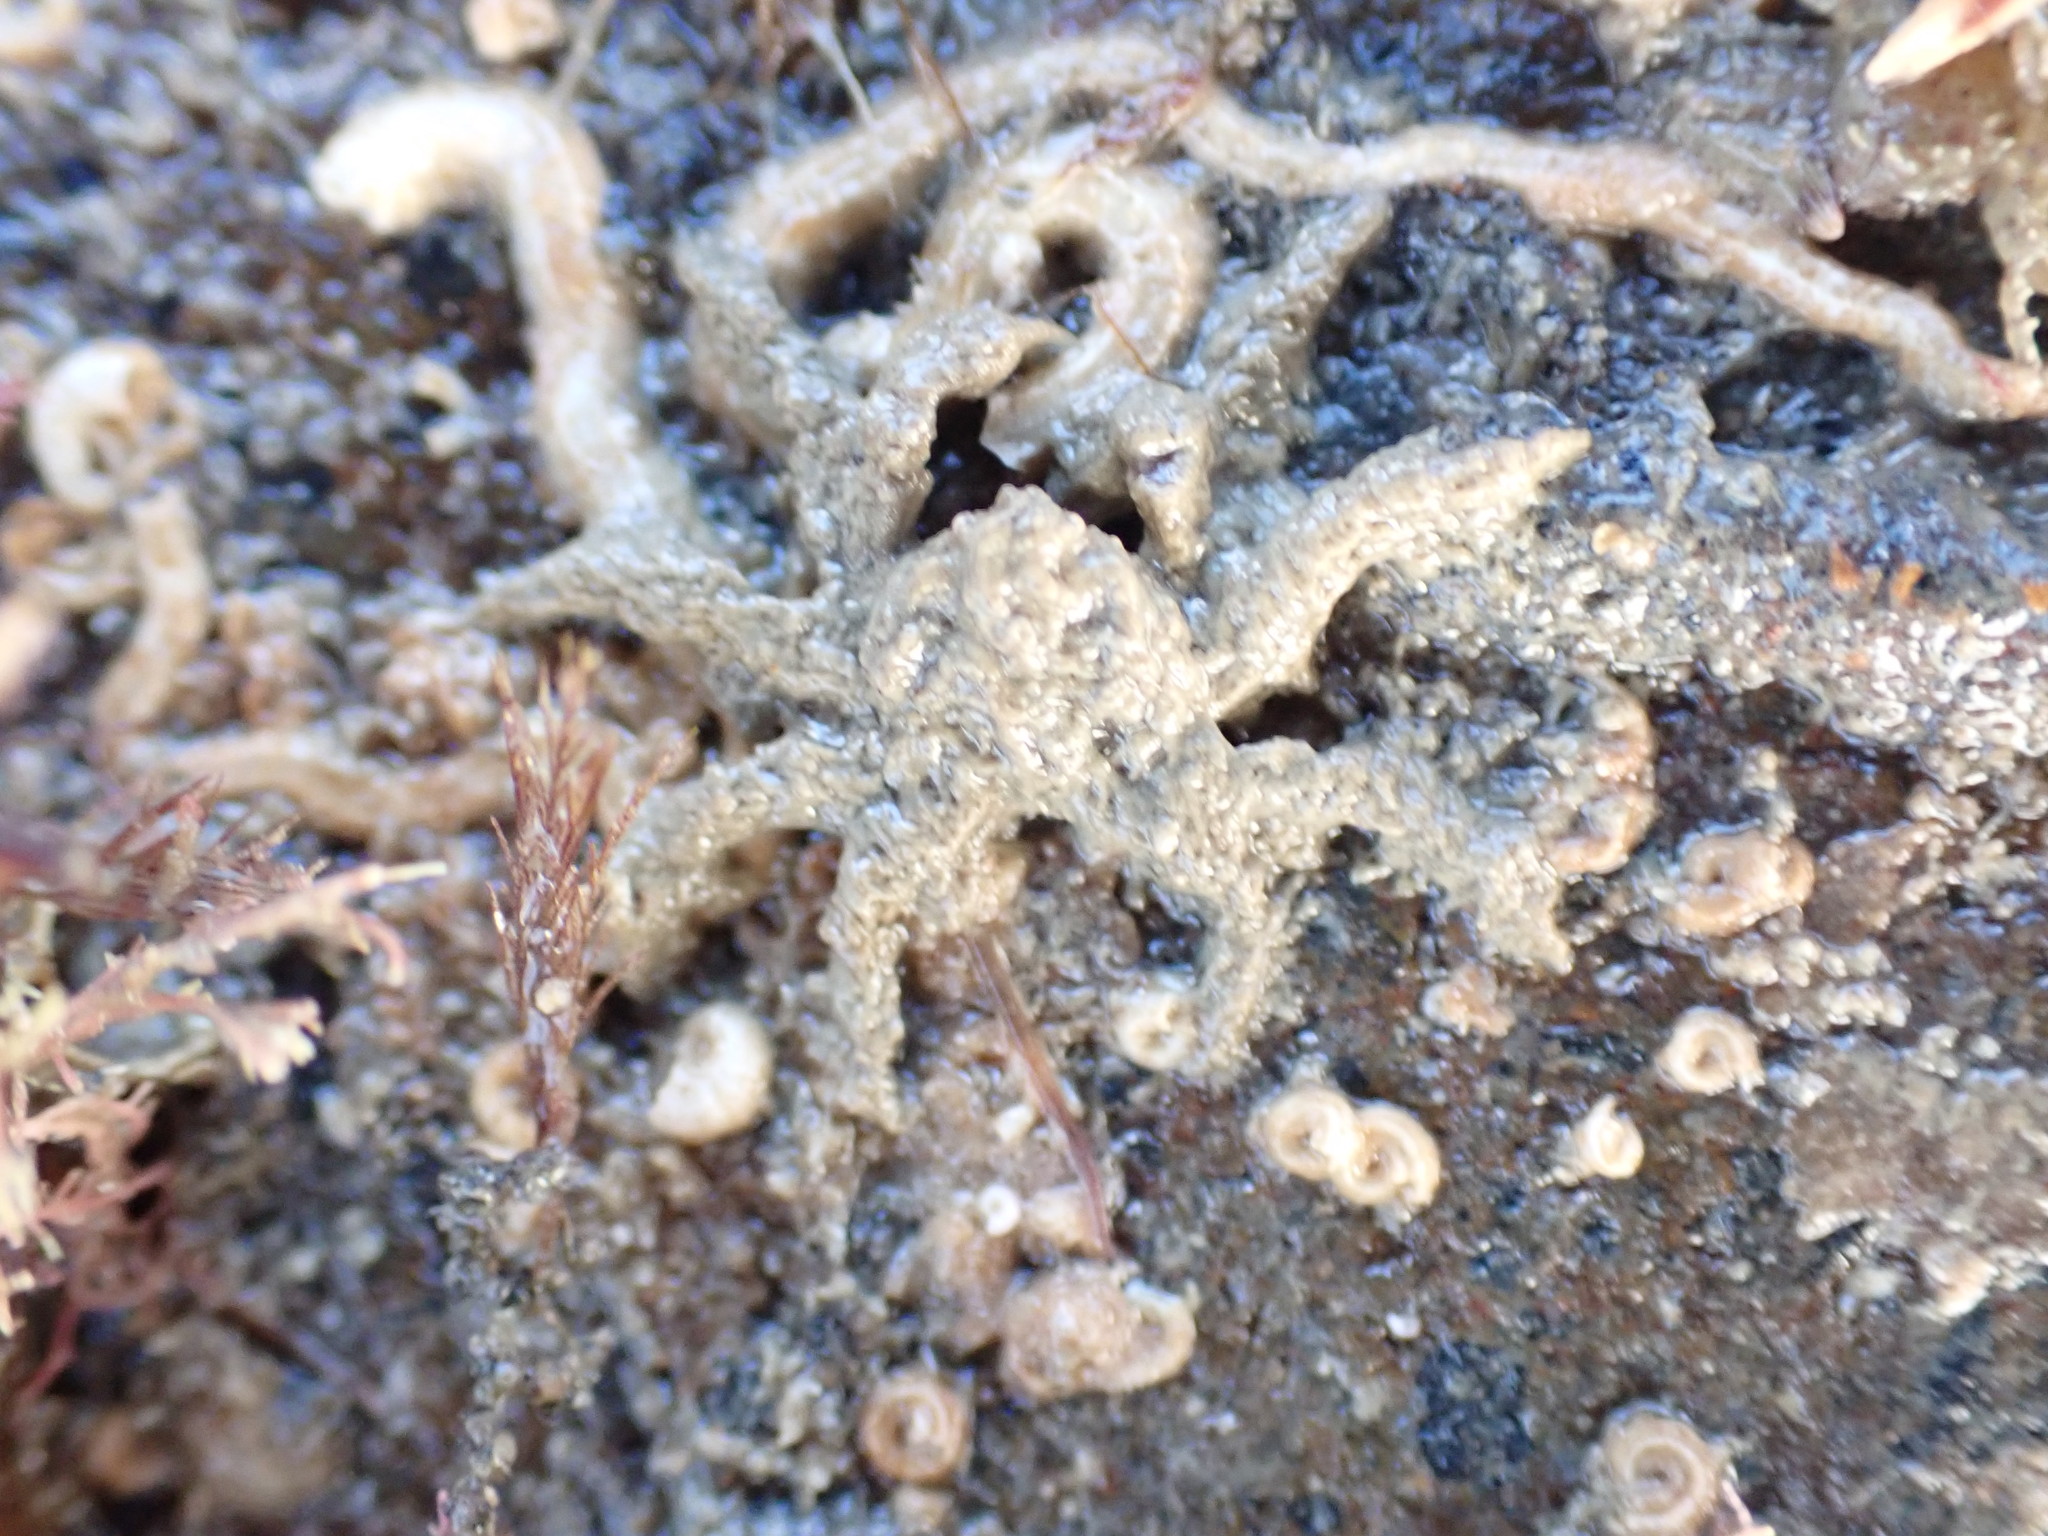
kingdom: Animalia
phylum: Arthropoda
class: Malacostraca
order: Decapoda
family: Hymenosomatidae
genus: Neohymenicus
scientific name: Neohymenicus pubescens
